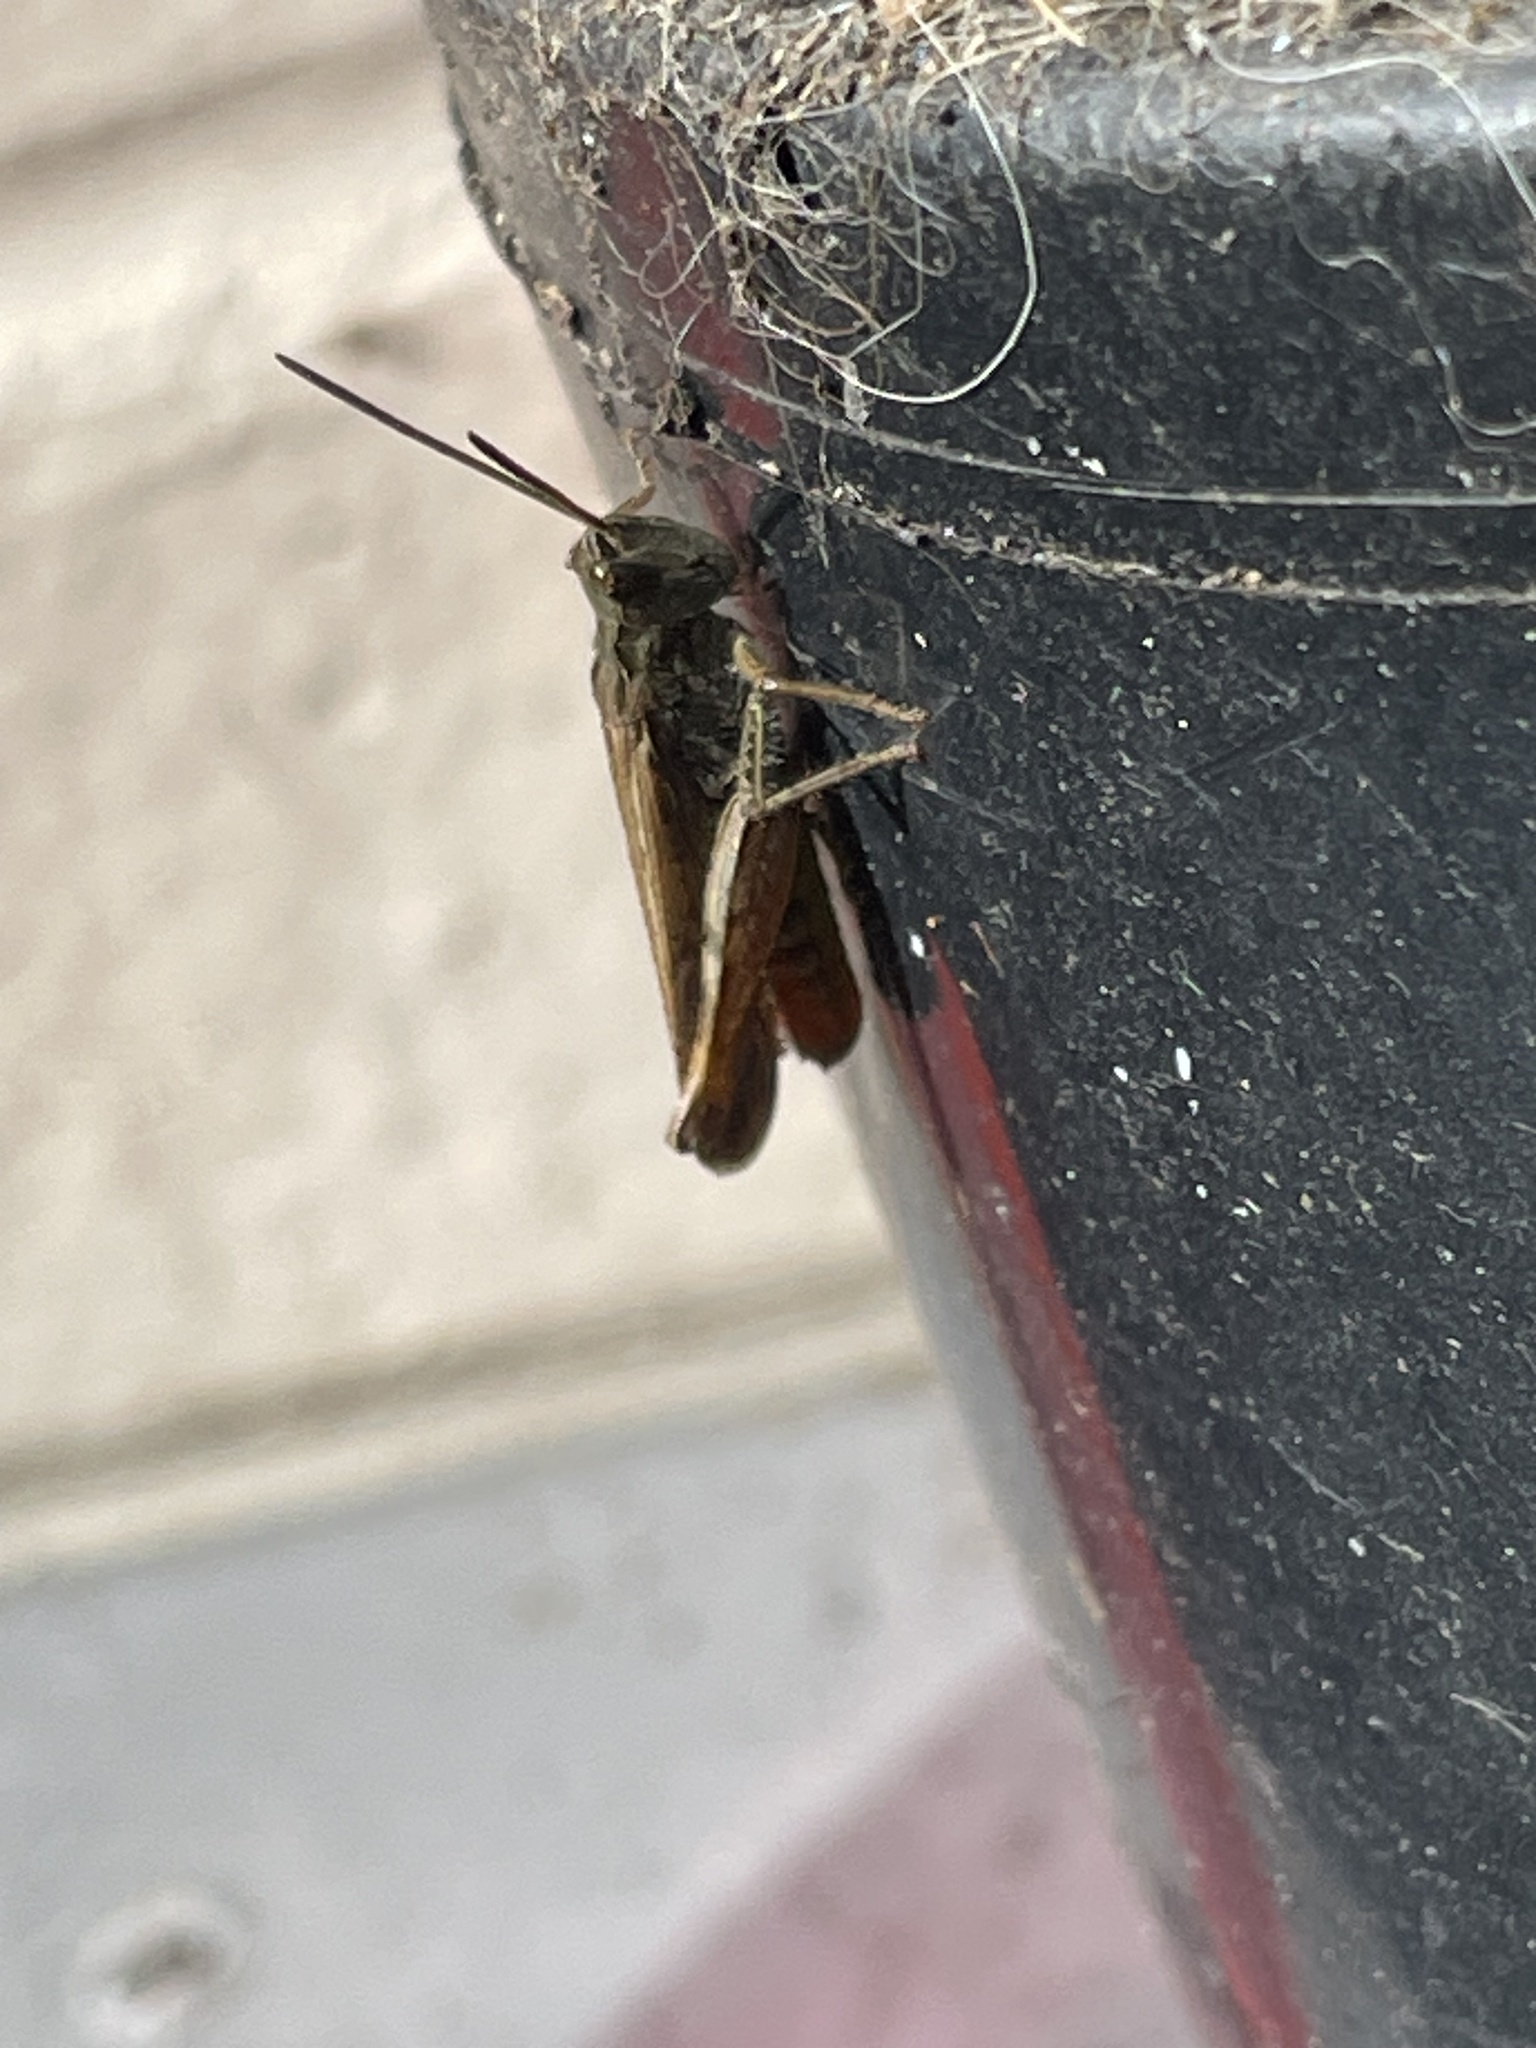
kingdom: Animalia
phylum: Arthropoda
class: Insecta
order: Orthoptera
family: Acrididae
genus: Chorthippus
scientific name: Chorthippus brunneus
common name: Field grasshopper
